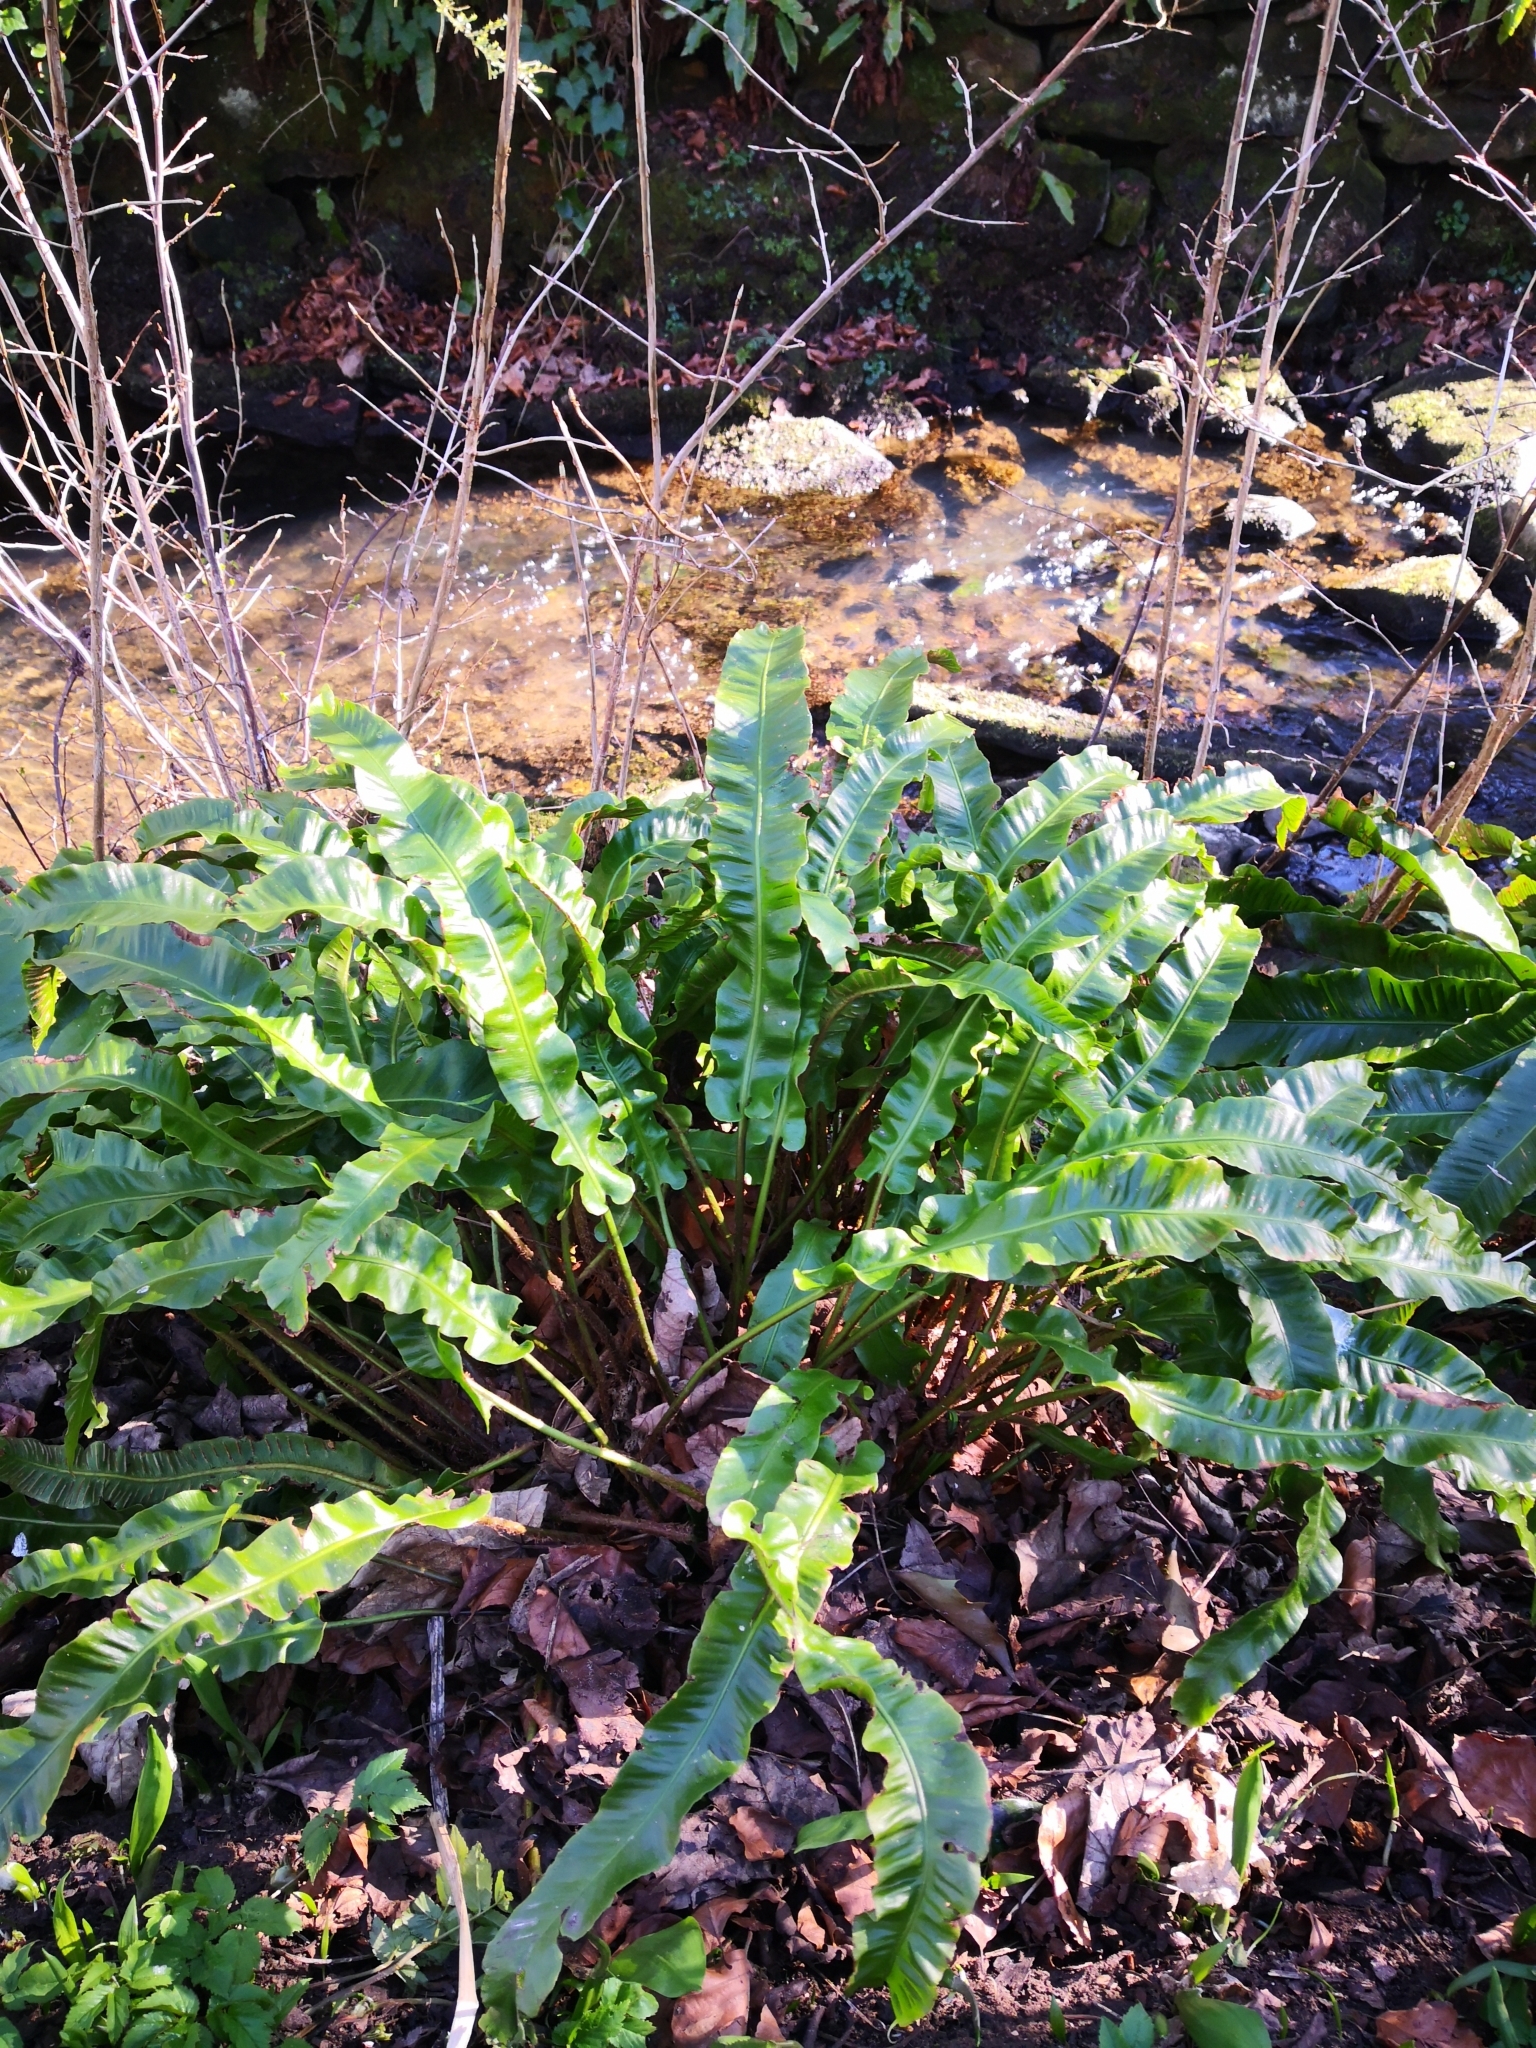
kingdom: Plantae
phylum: Tracheophyta
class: Polypodiopsida
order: Polypodiales
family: Aspleniaceae
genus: Asplenium
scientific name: Asplenium scolopendrium
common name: Hart's-tongue fern
